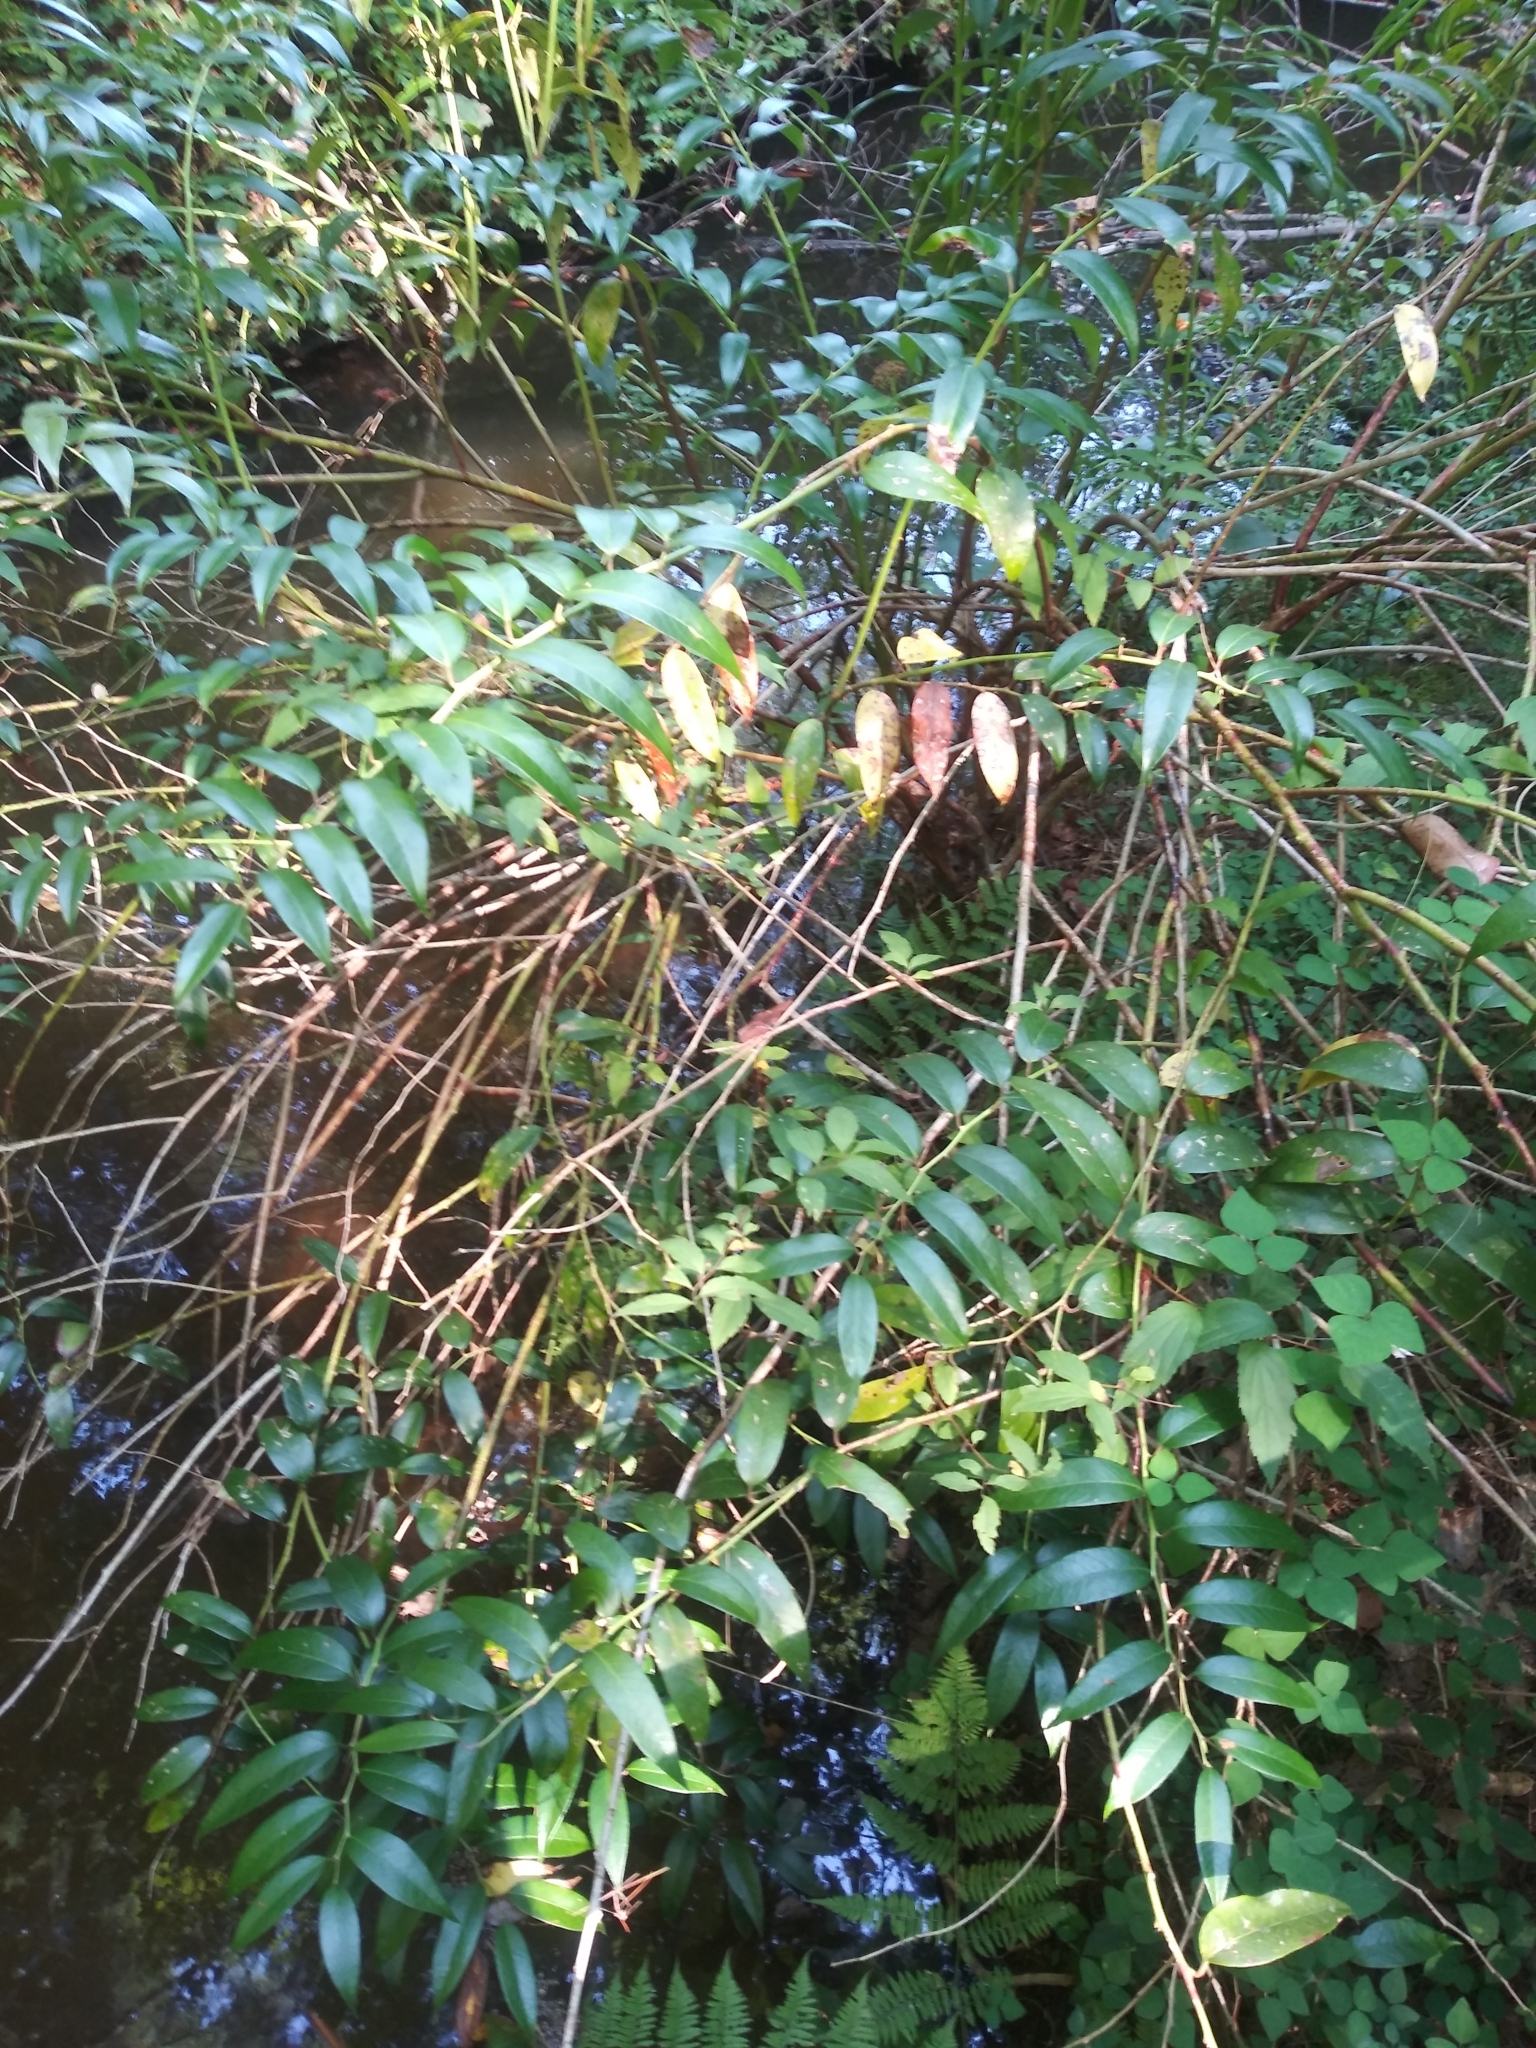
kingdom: Plantae
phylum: Tracheophyta
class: Magnoliopsida
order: Ericales
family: Ericaceae
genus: Leucothoe
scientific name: Leucothoe fontanesiana
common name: Fetterbush
